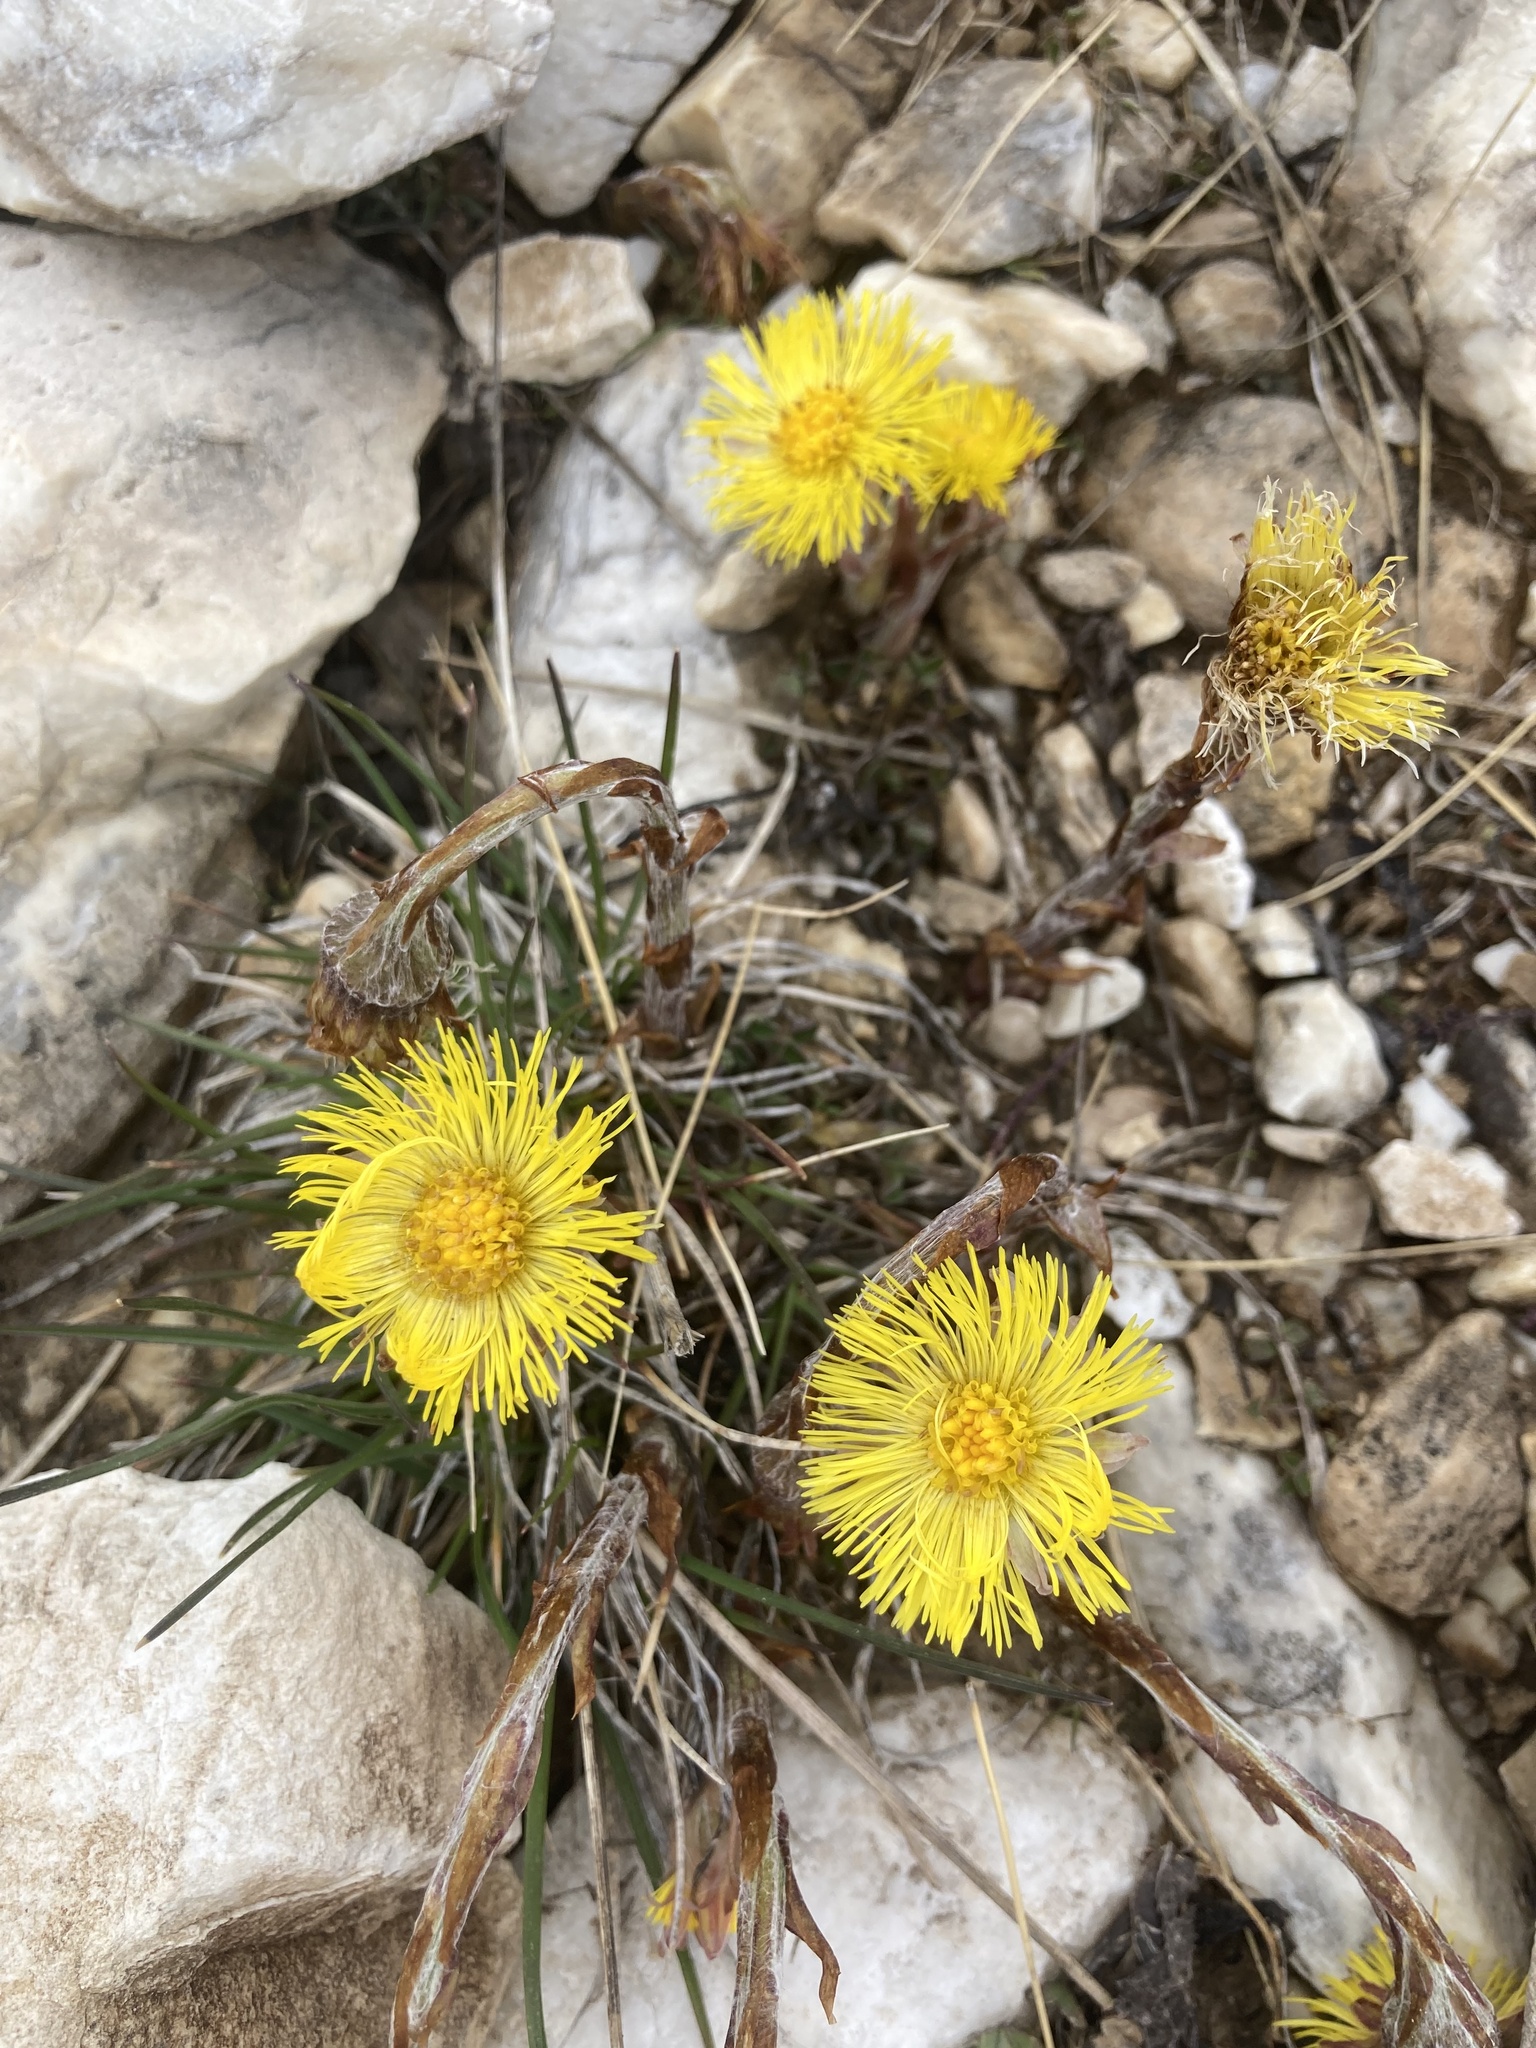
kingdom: Plantae
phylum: Tracheophyta
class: Magnoliopsida
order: Asterales
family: Asteraceae
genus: Tussilago
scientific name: Tussilago farfara
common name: Coltsfoot
